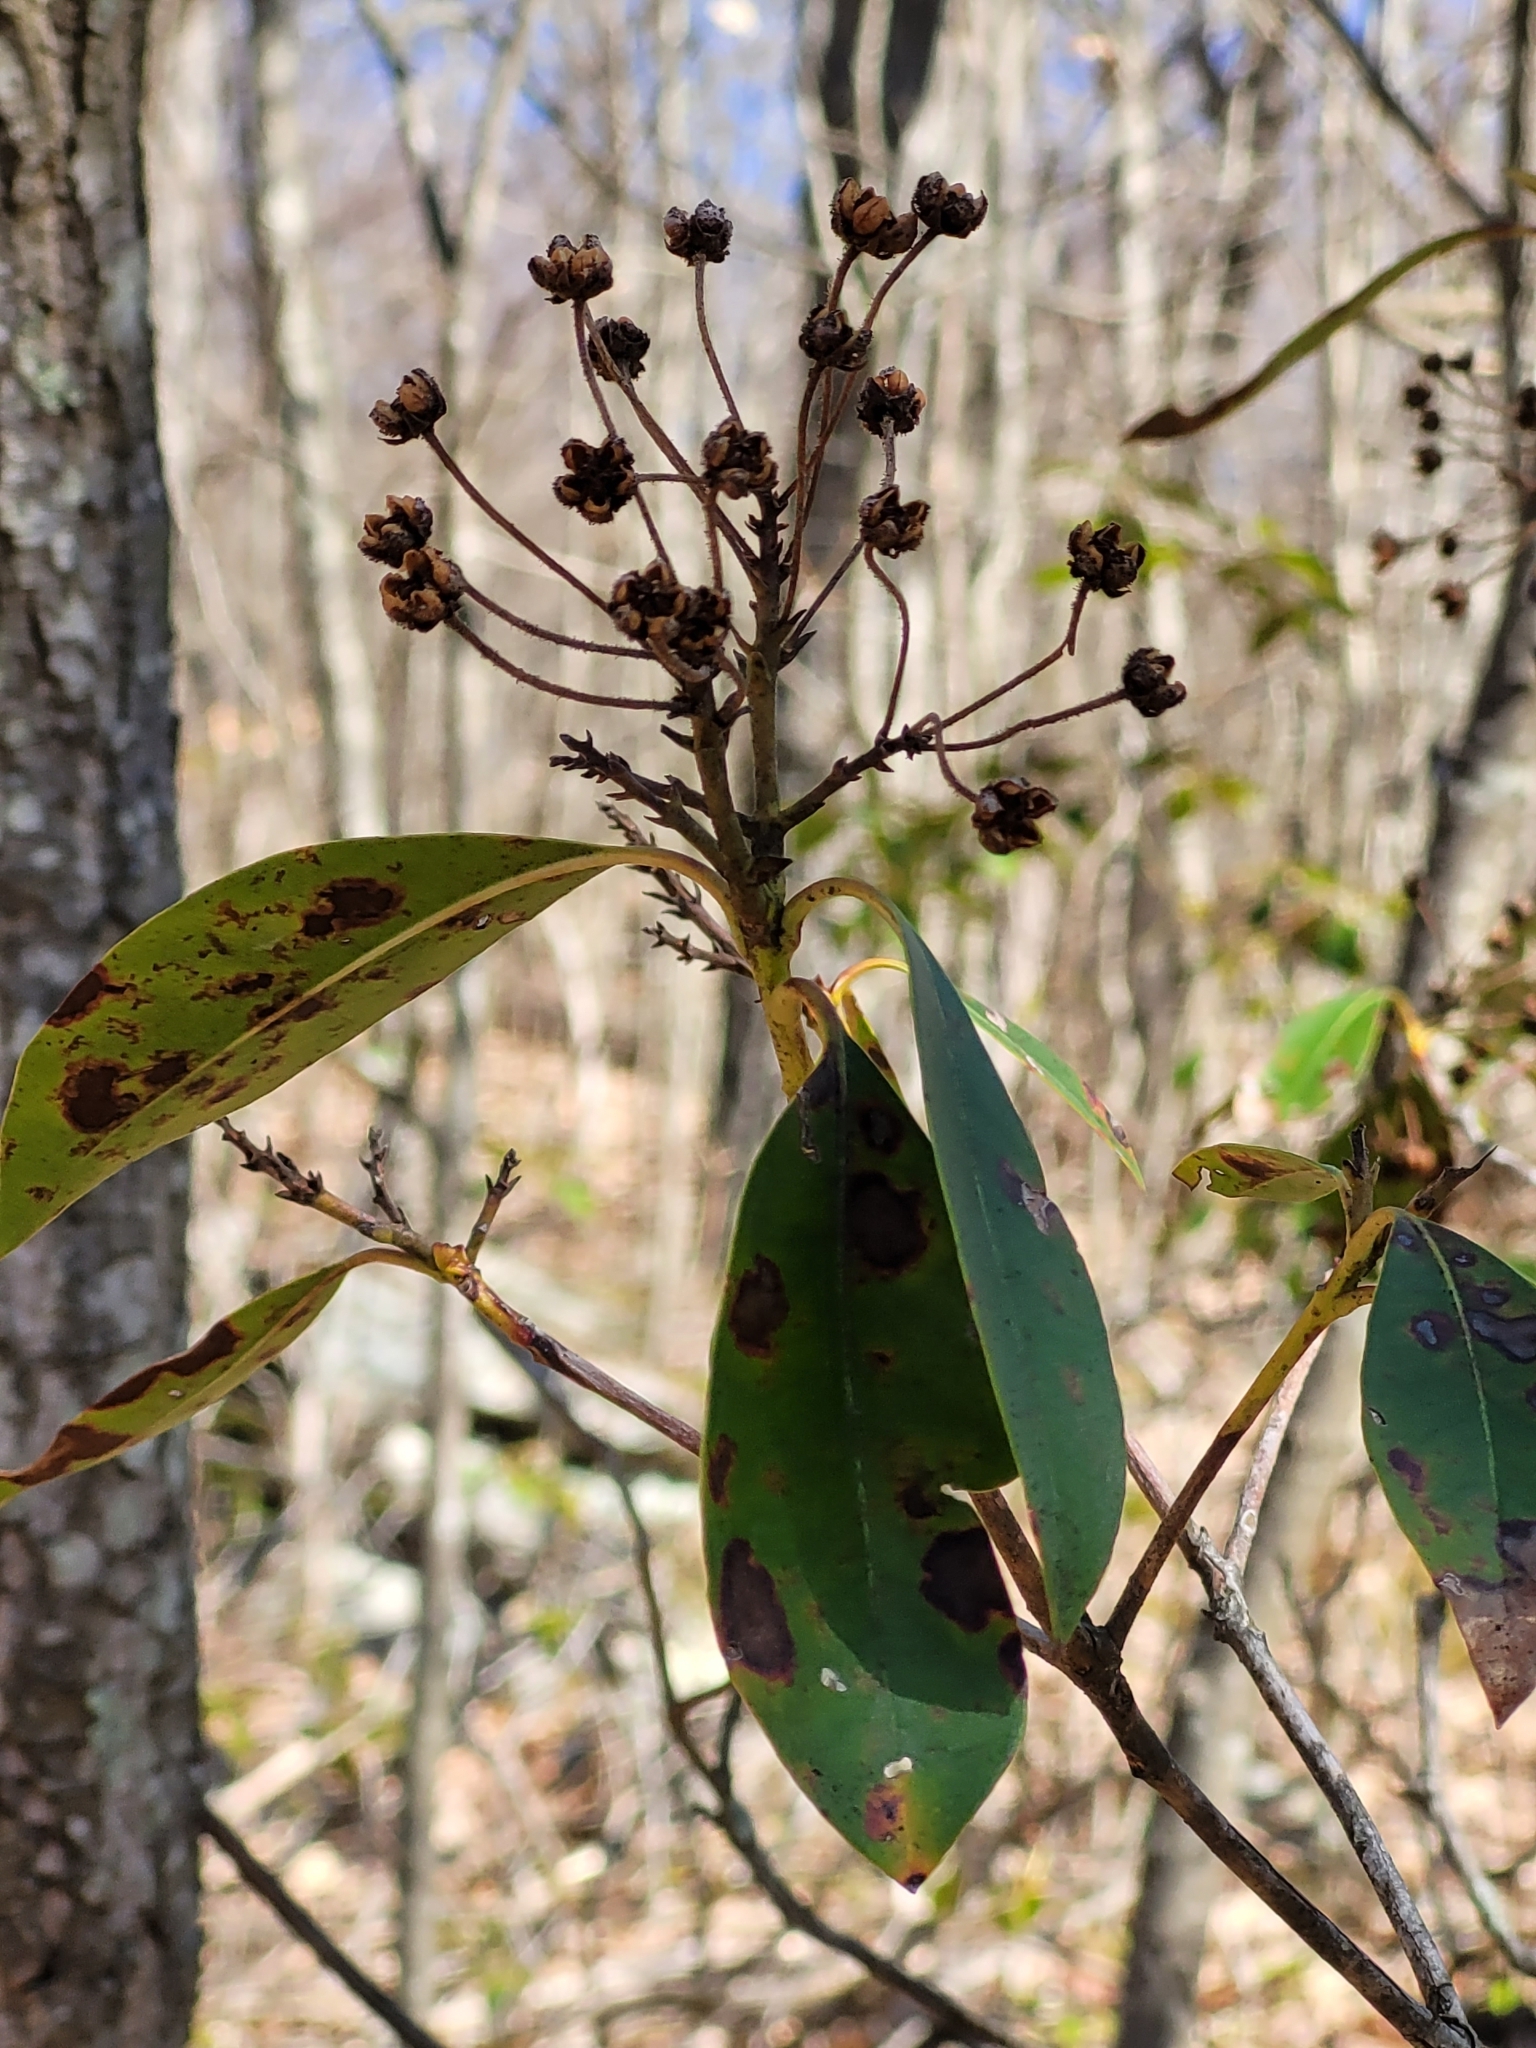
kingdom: Plantae
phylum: Tracheophyta
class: Magnoliopsida
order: Ericales
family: Ericaceae
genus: Kalmia
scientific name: Kalmia latifolia
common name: Mountain-laurel
